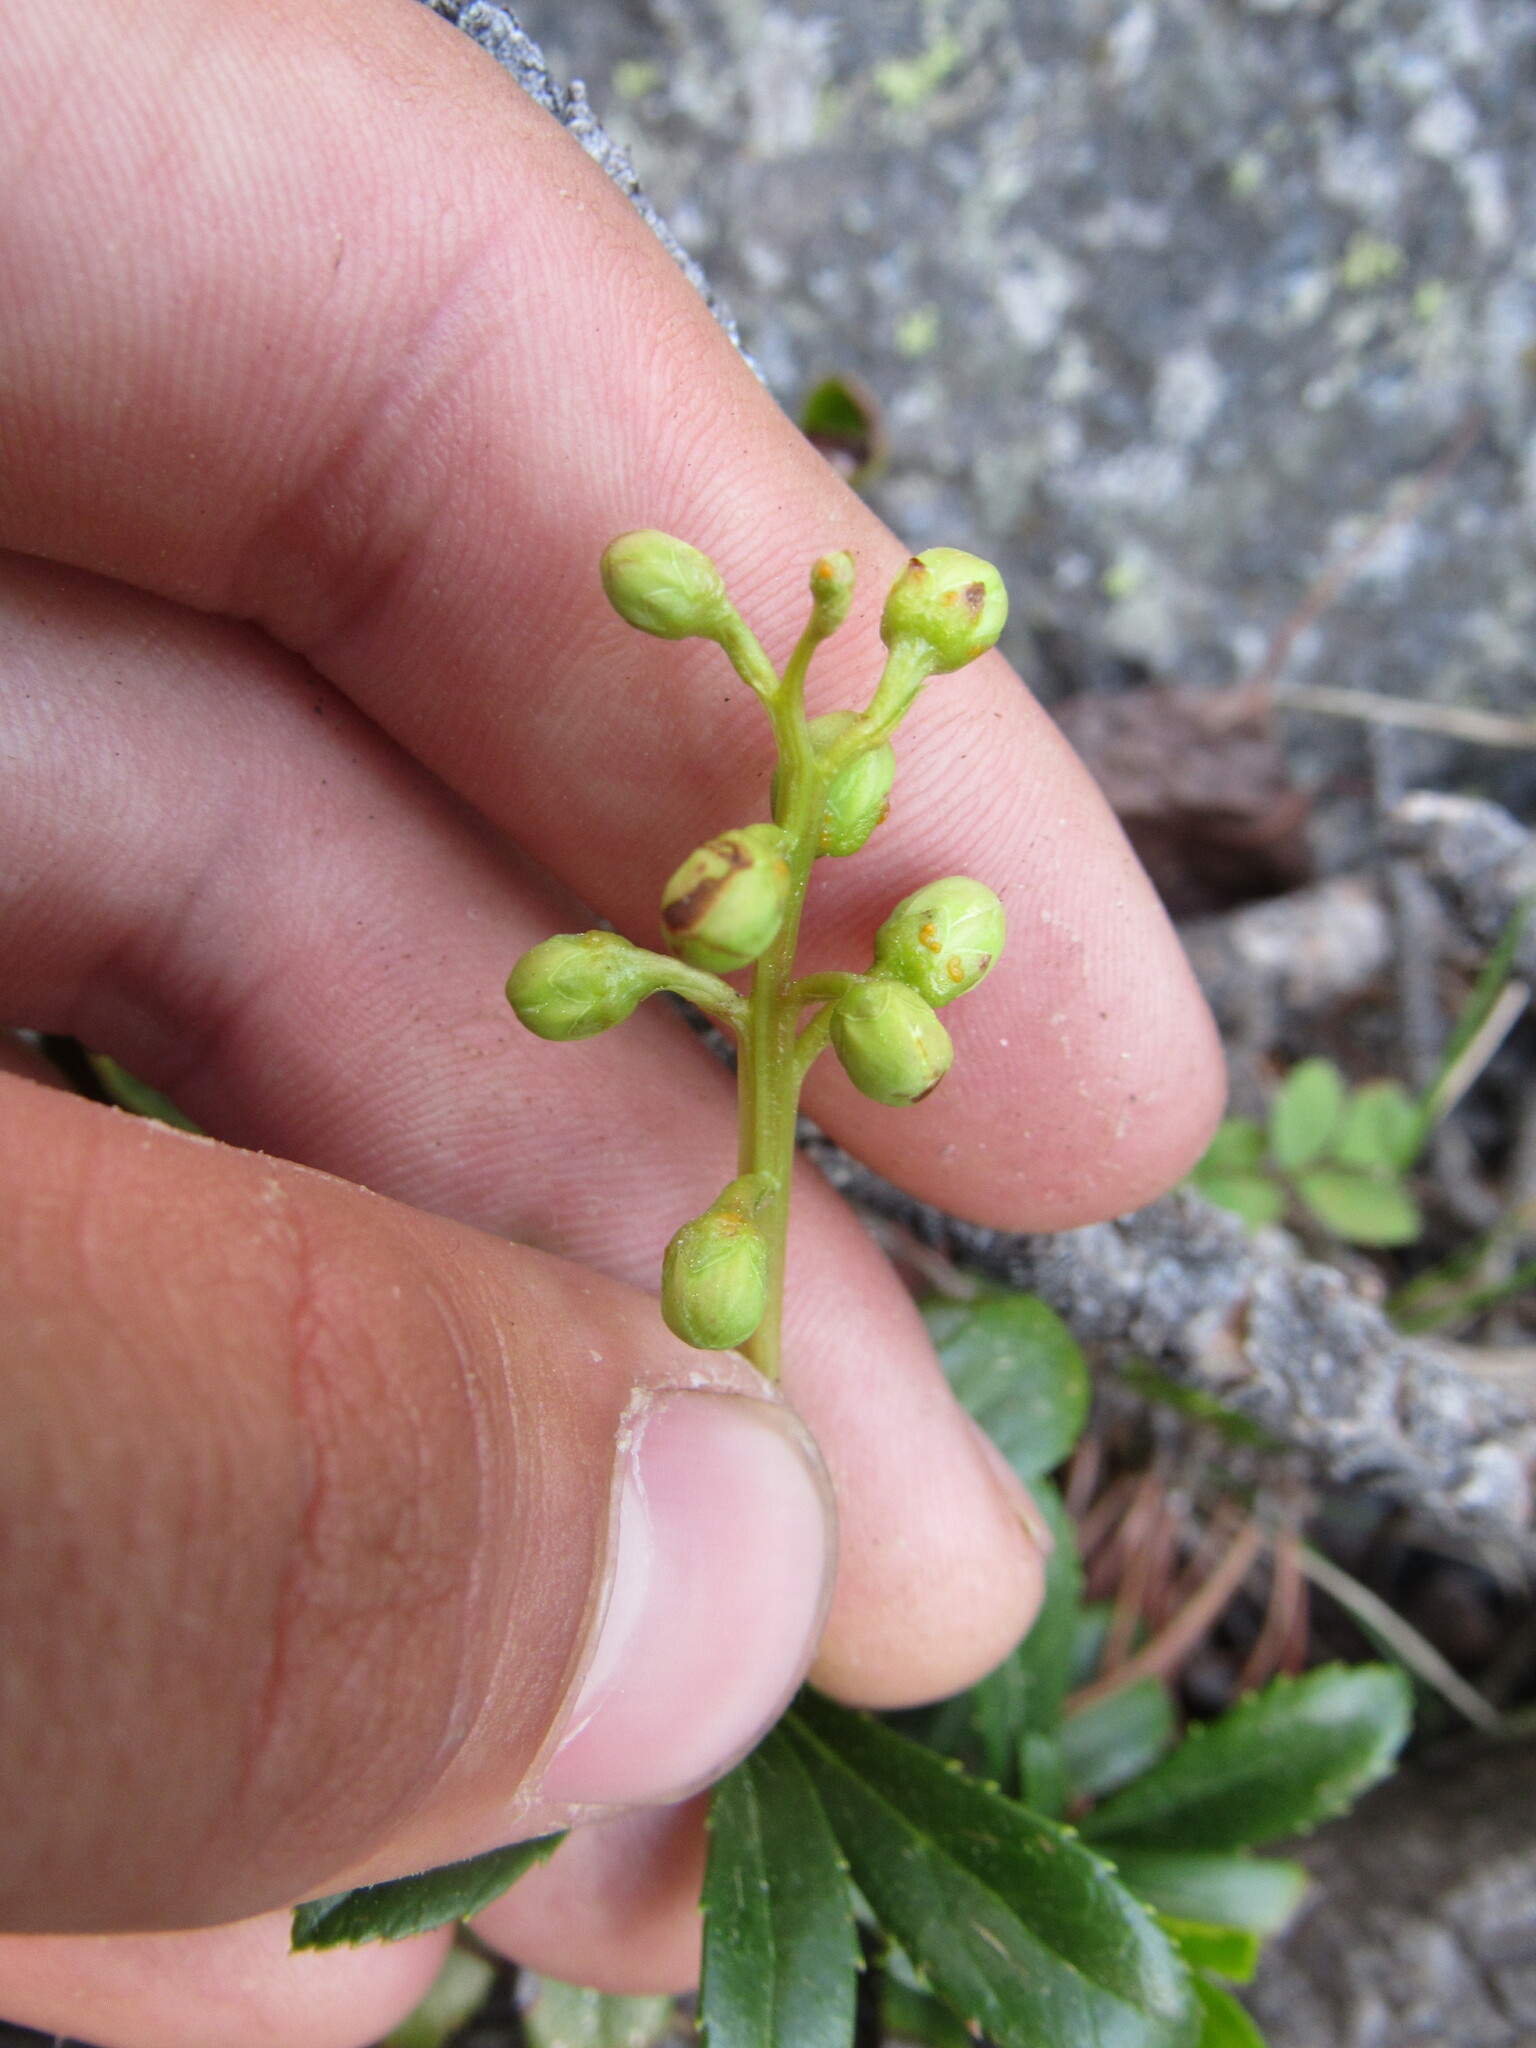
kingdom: Plantae
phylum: Tracheophyta
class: Magnoliopsida
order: Ericales
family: Ericaceae
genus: Chimaphila
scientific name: Chimaphila umbellata
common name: Pipsissewa
